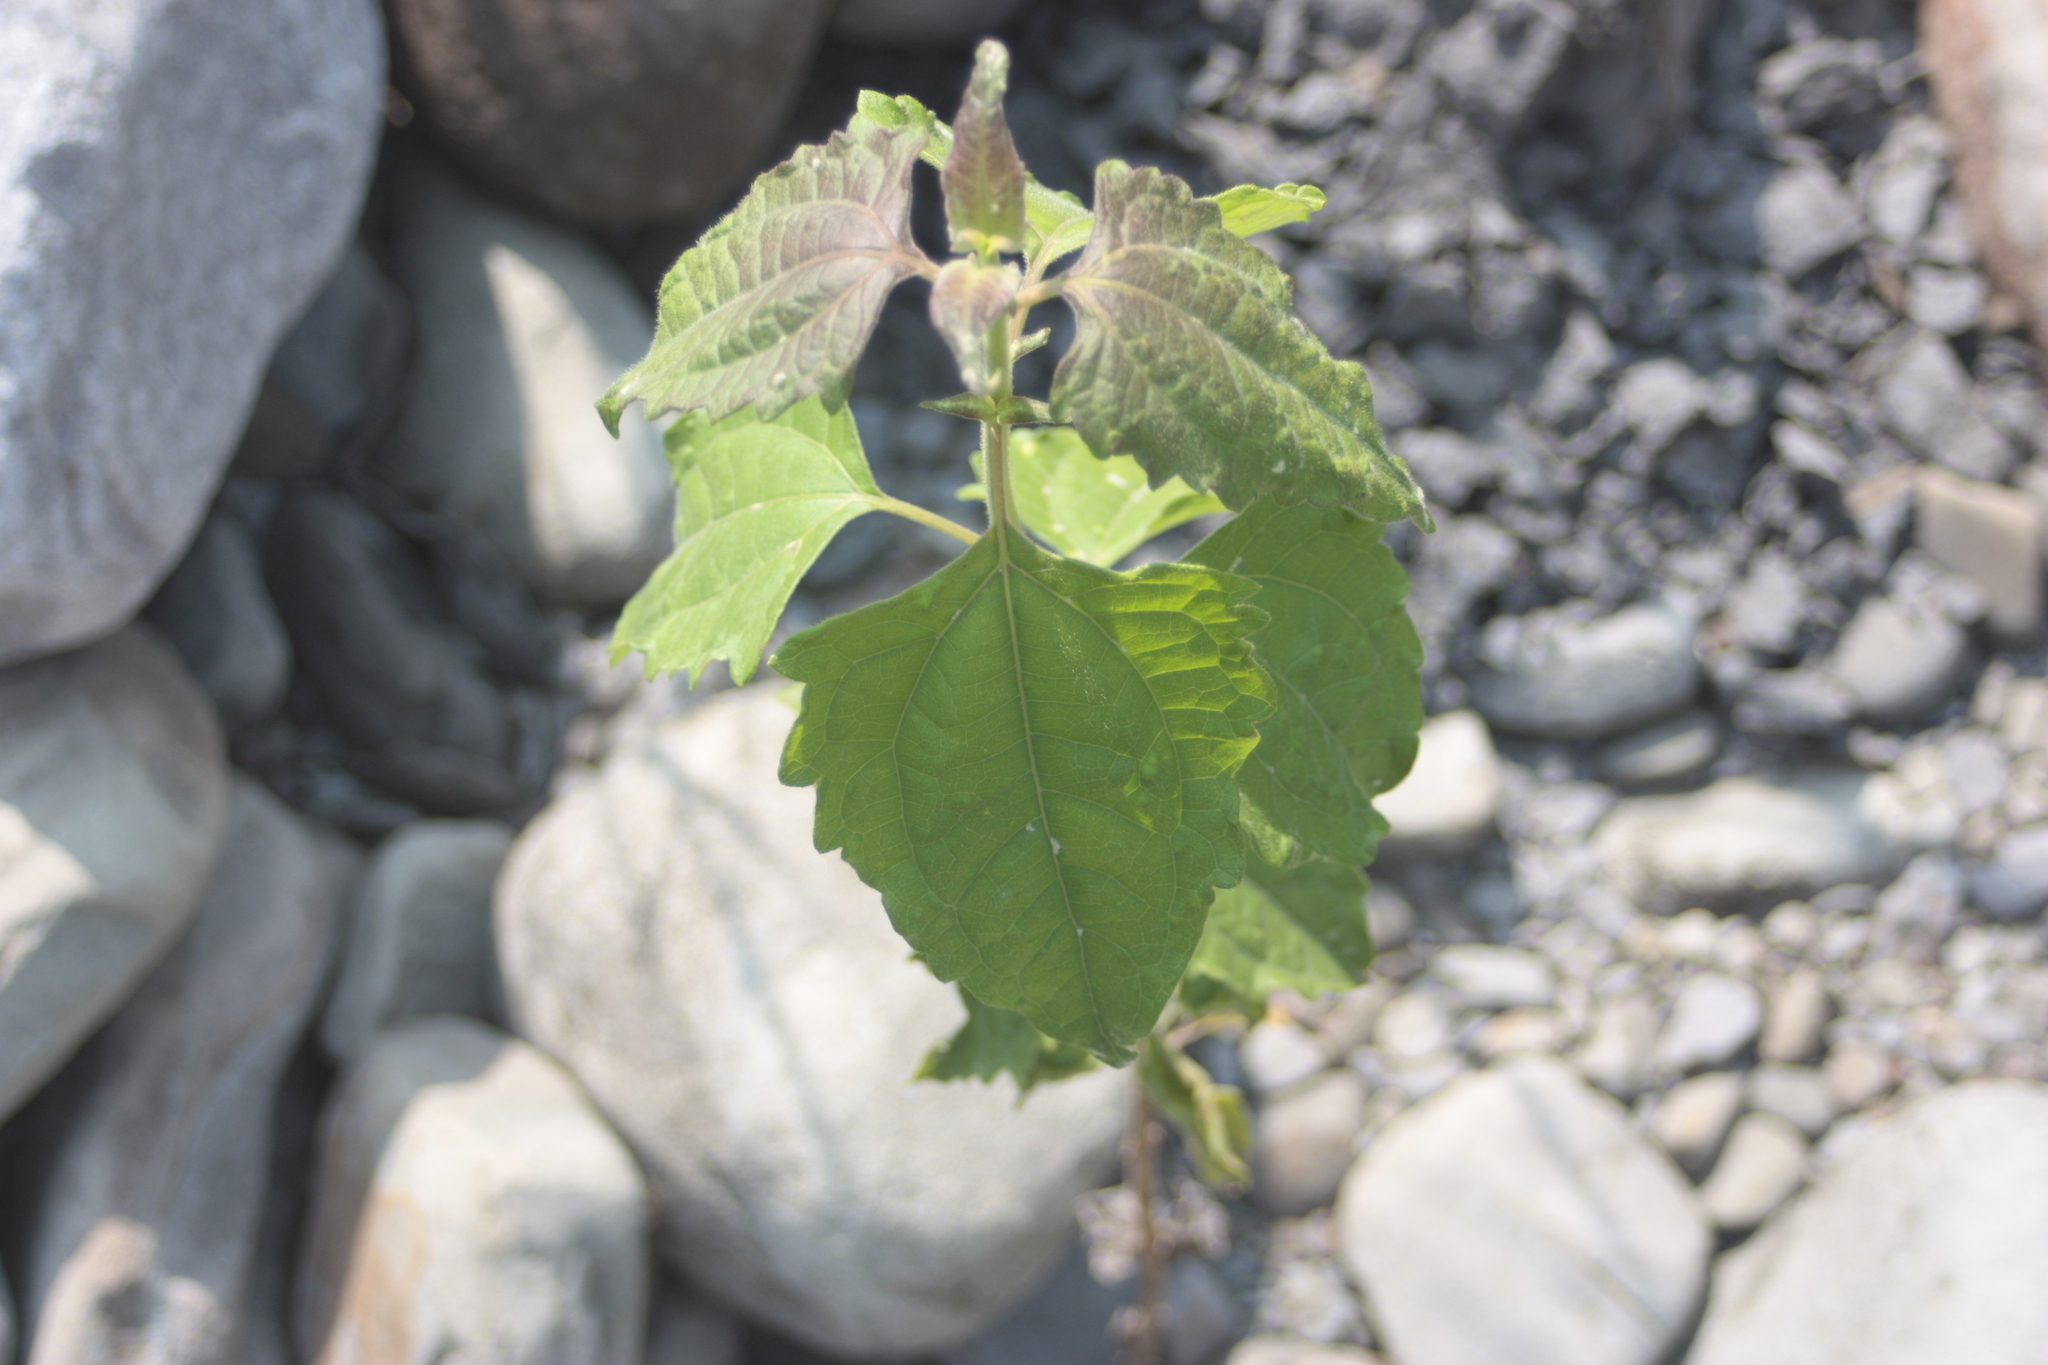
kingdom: Plantae
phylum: Tracheophyta
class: Magnoliopsida
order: Asterales
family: Asteraceae
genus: Chromolaena
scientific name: Chromolaena odorata
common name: Siamweed
